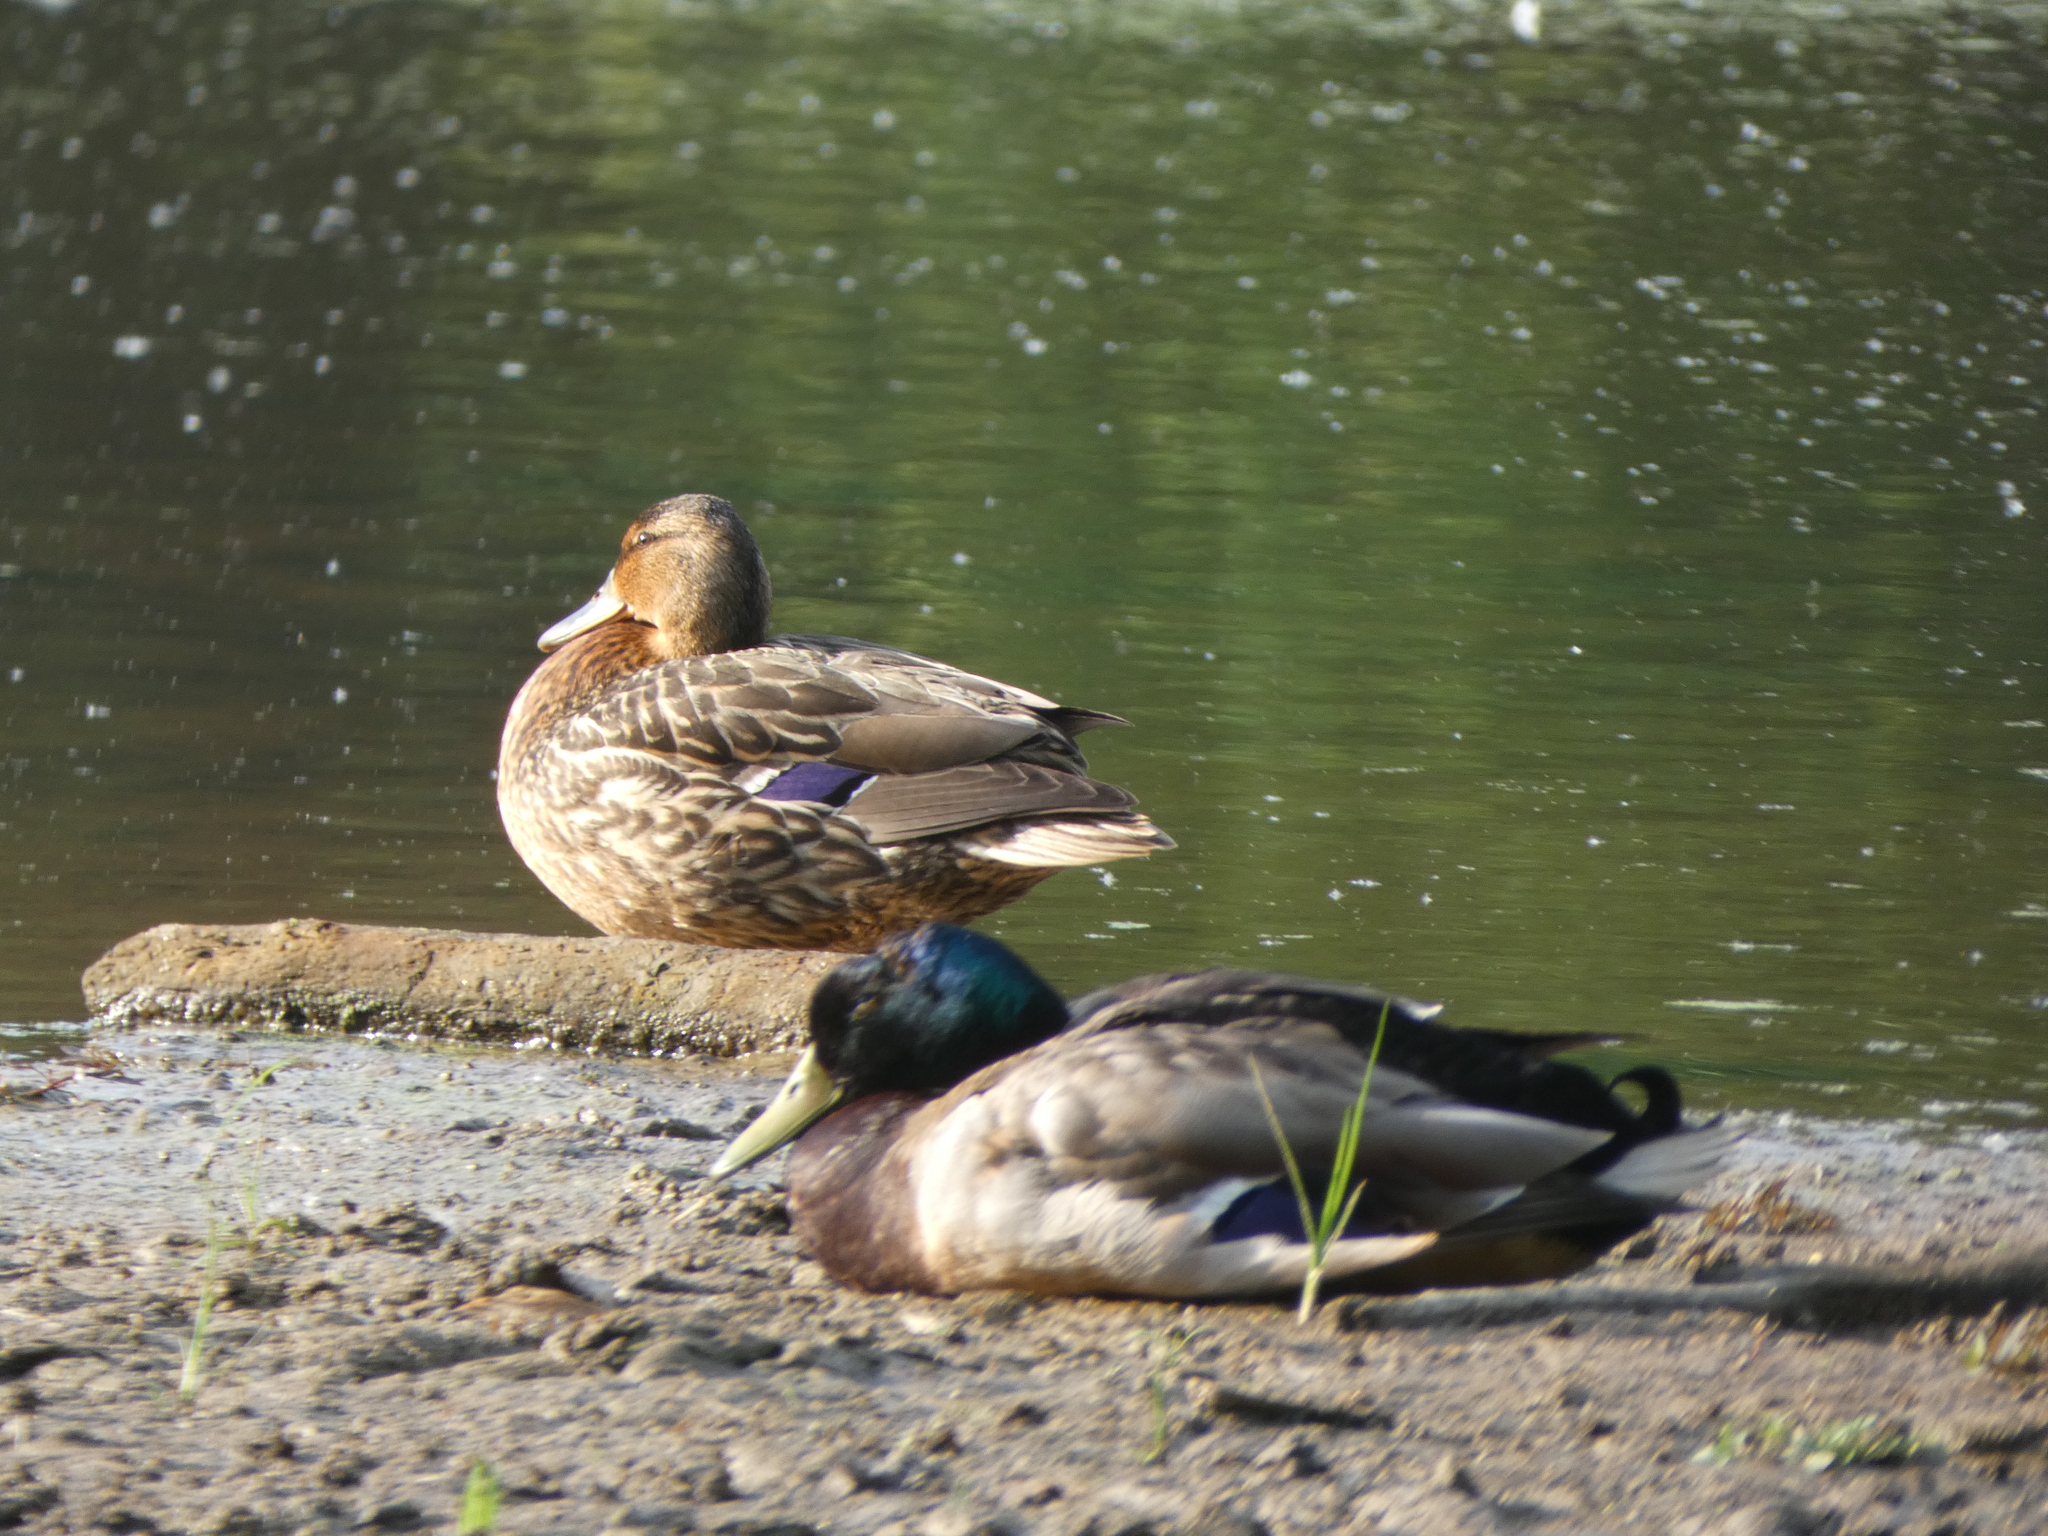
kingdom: Animalia
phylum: Chordata
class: Aves
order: Anseriformes
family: Anatidae
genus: Anas
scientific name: Anas platyrhynchos
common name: Mallard
